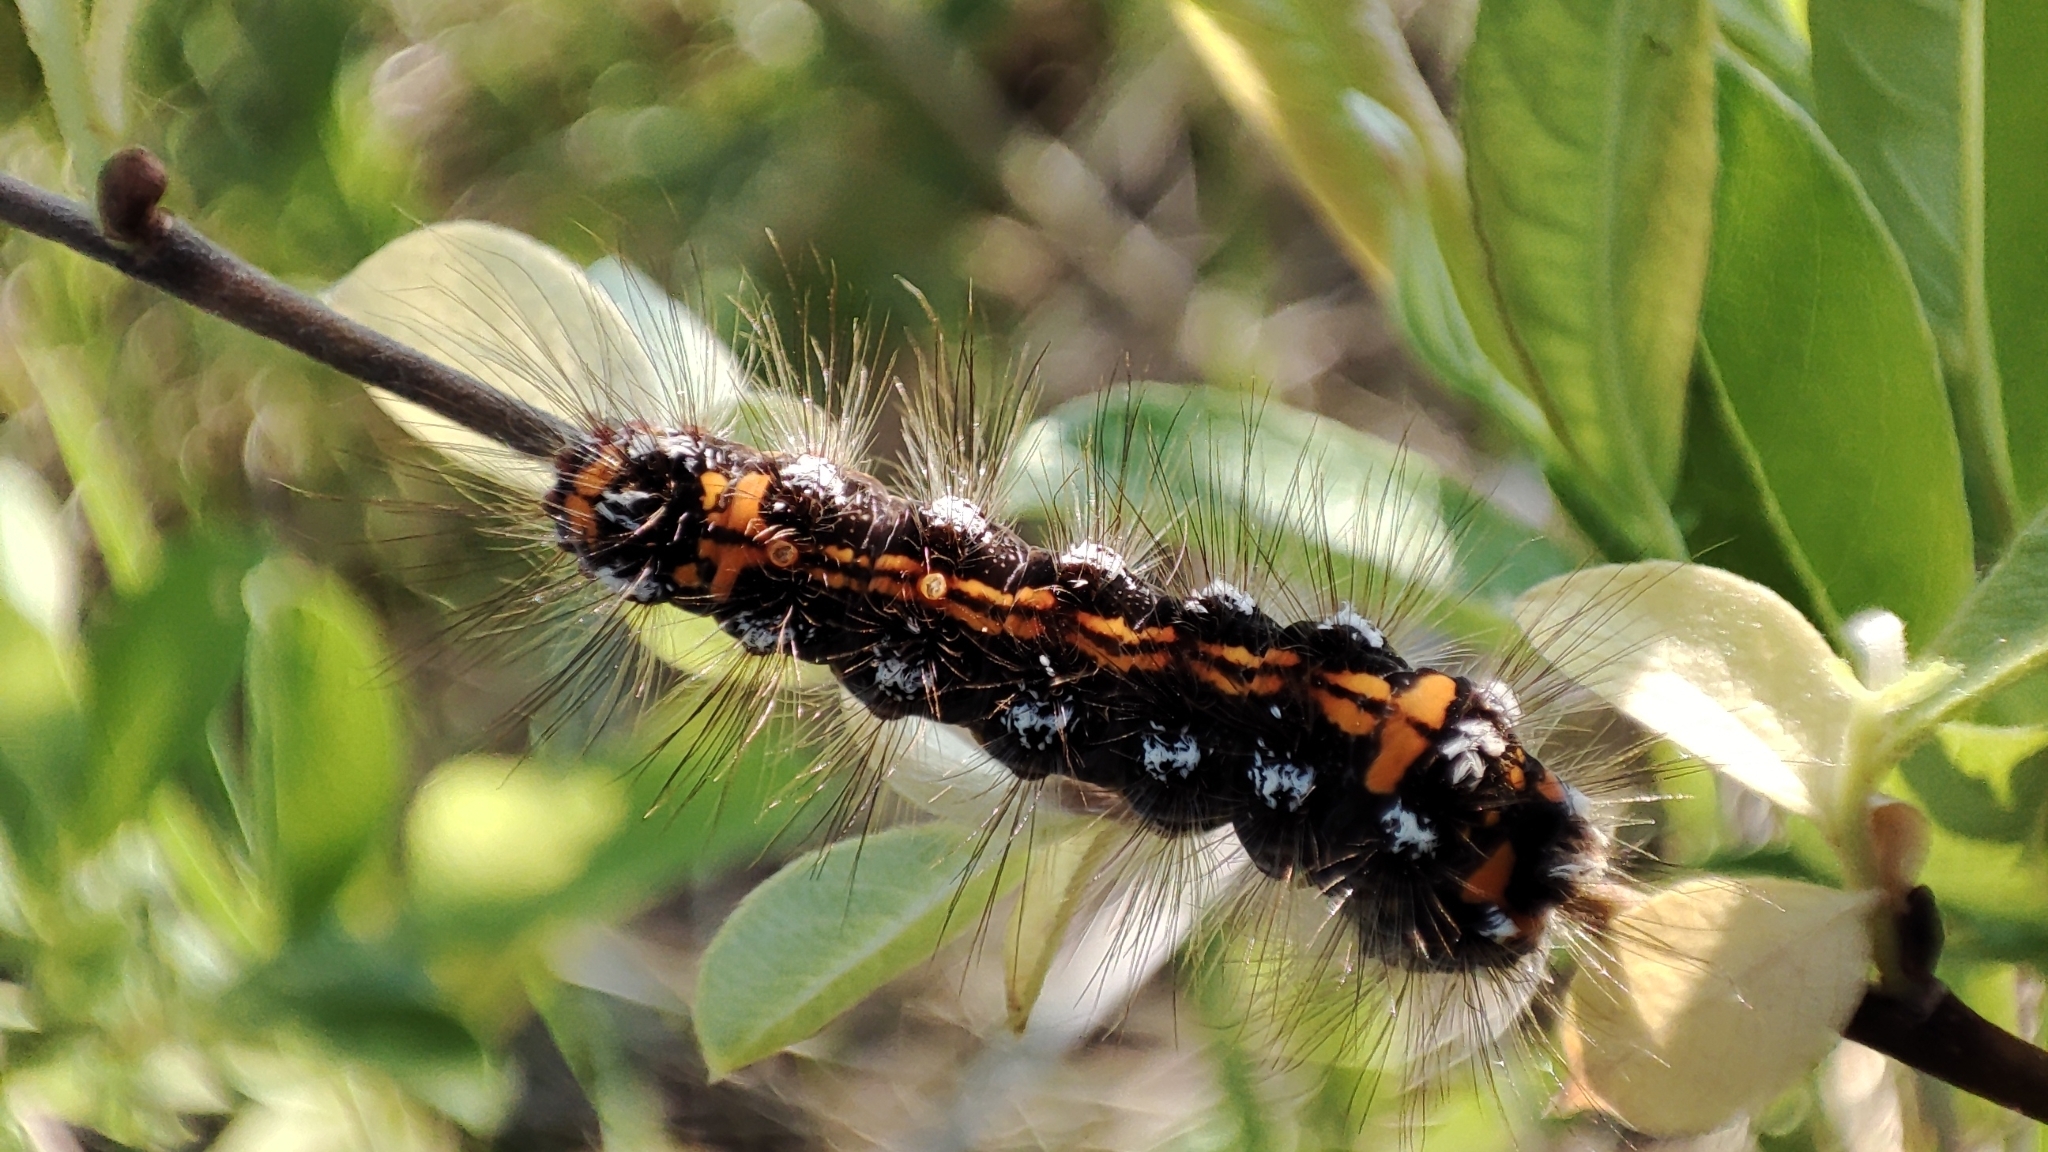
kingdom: Animalia
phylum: Arthropoda
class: Insecta
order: Lepidoptera
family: Erebidae
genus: Sphrageidus
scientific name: Sphrageidus similis
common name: Yellow-tail
